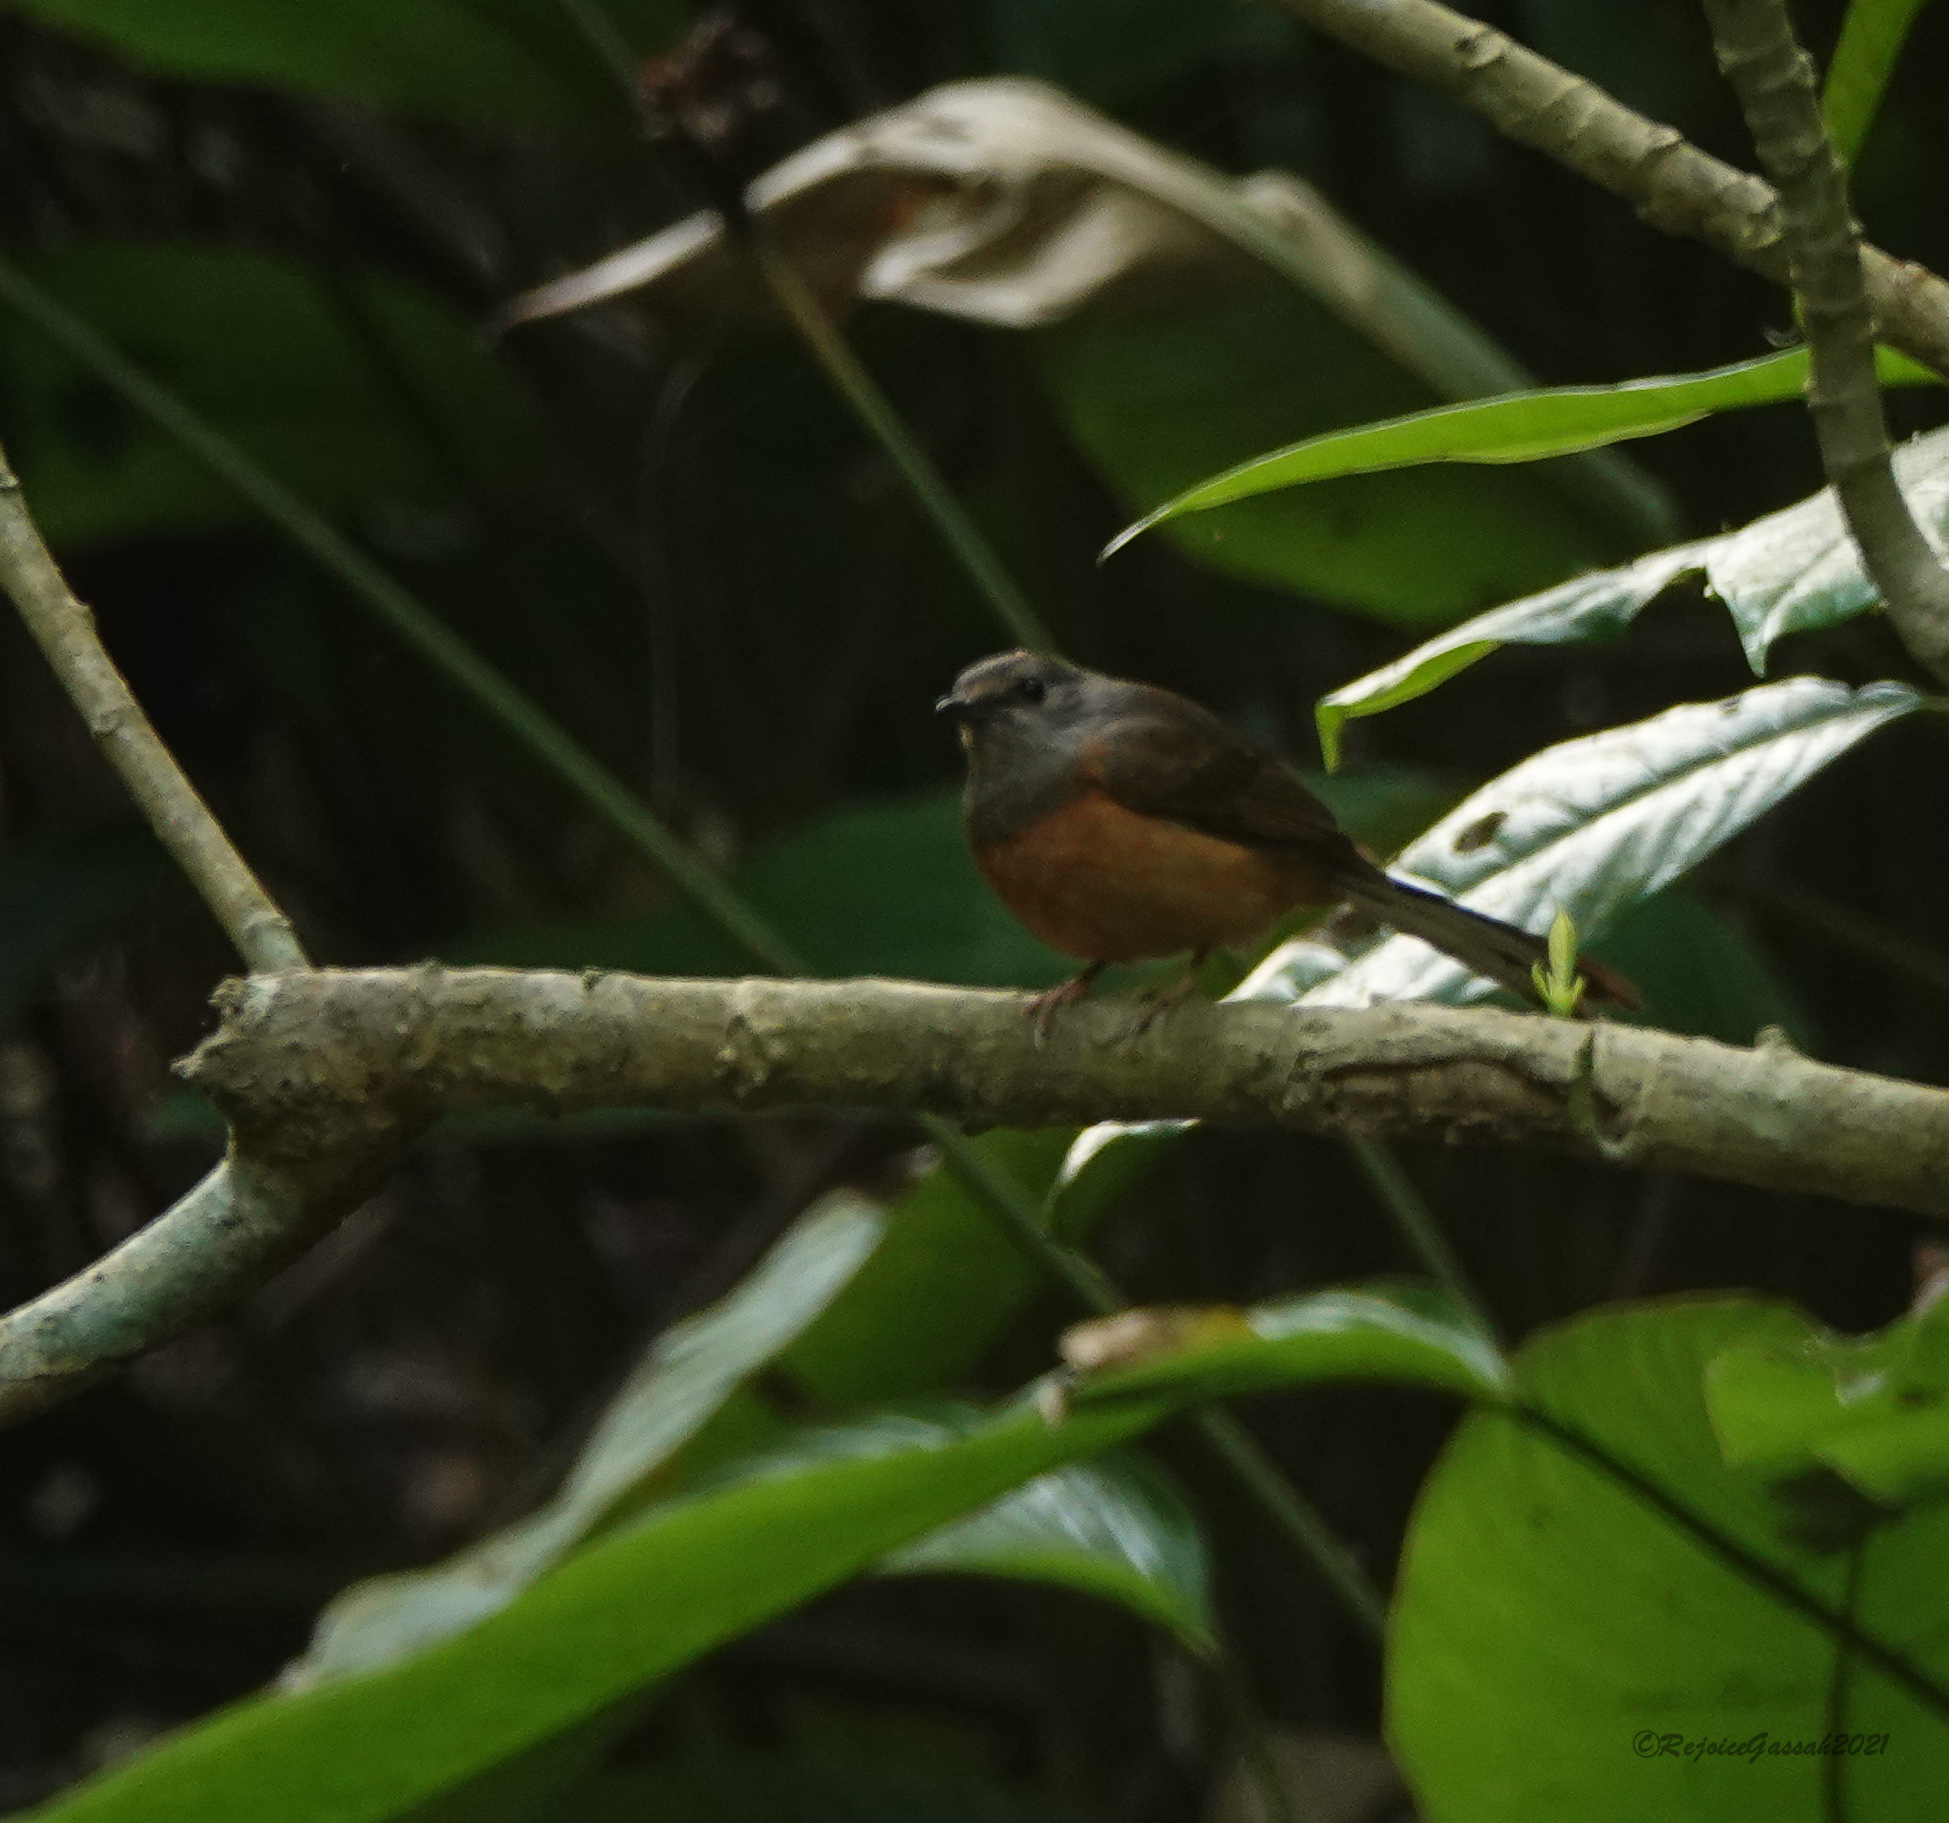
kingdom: Animalia
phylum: Chordata
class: Aves
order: Passeriformes
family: Muscicapidae
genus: Copsychus
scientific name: Copsychus malabaricus
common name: White-rumped shama
